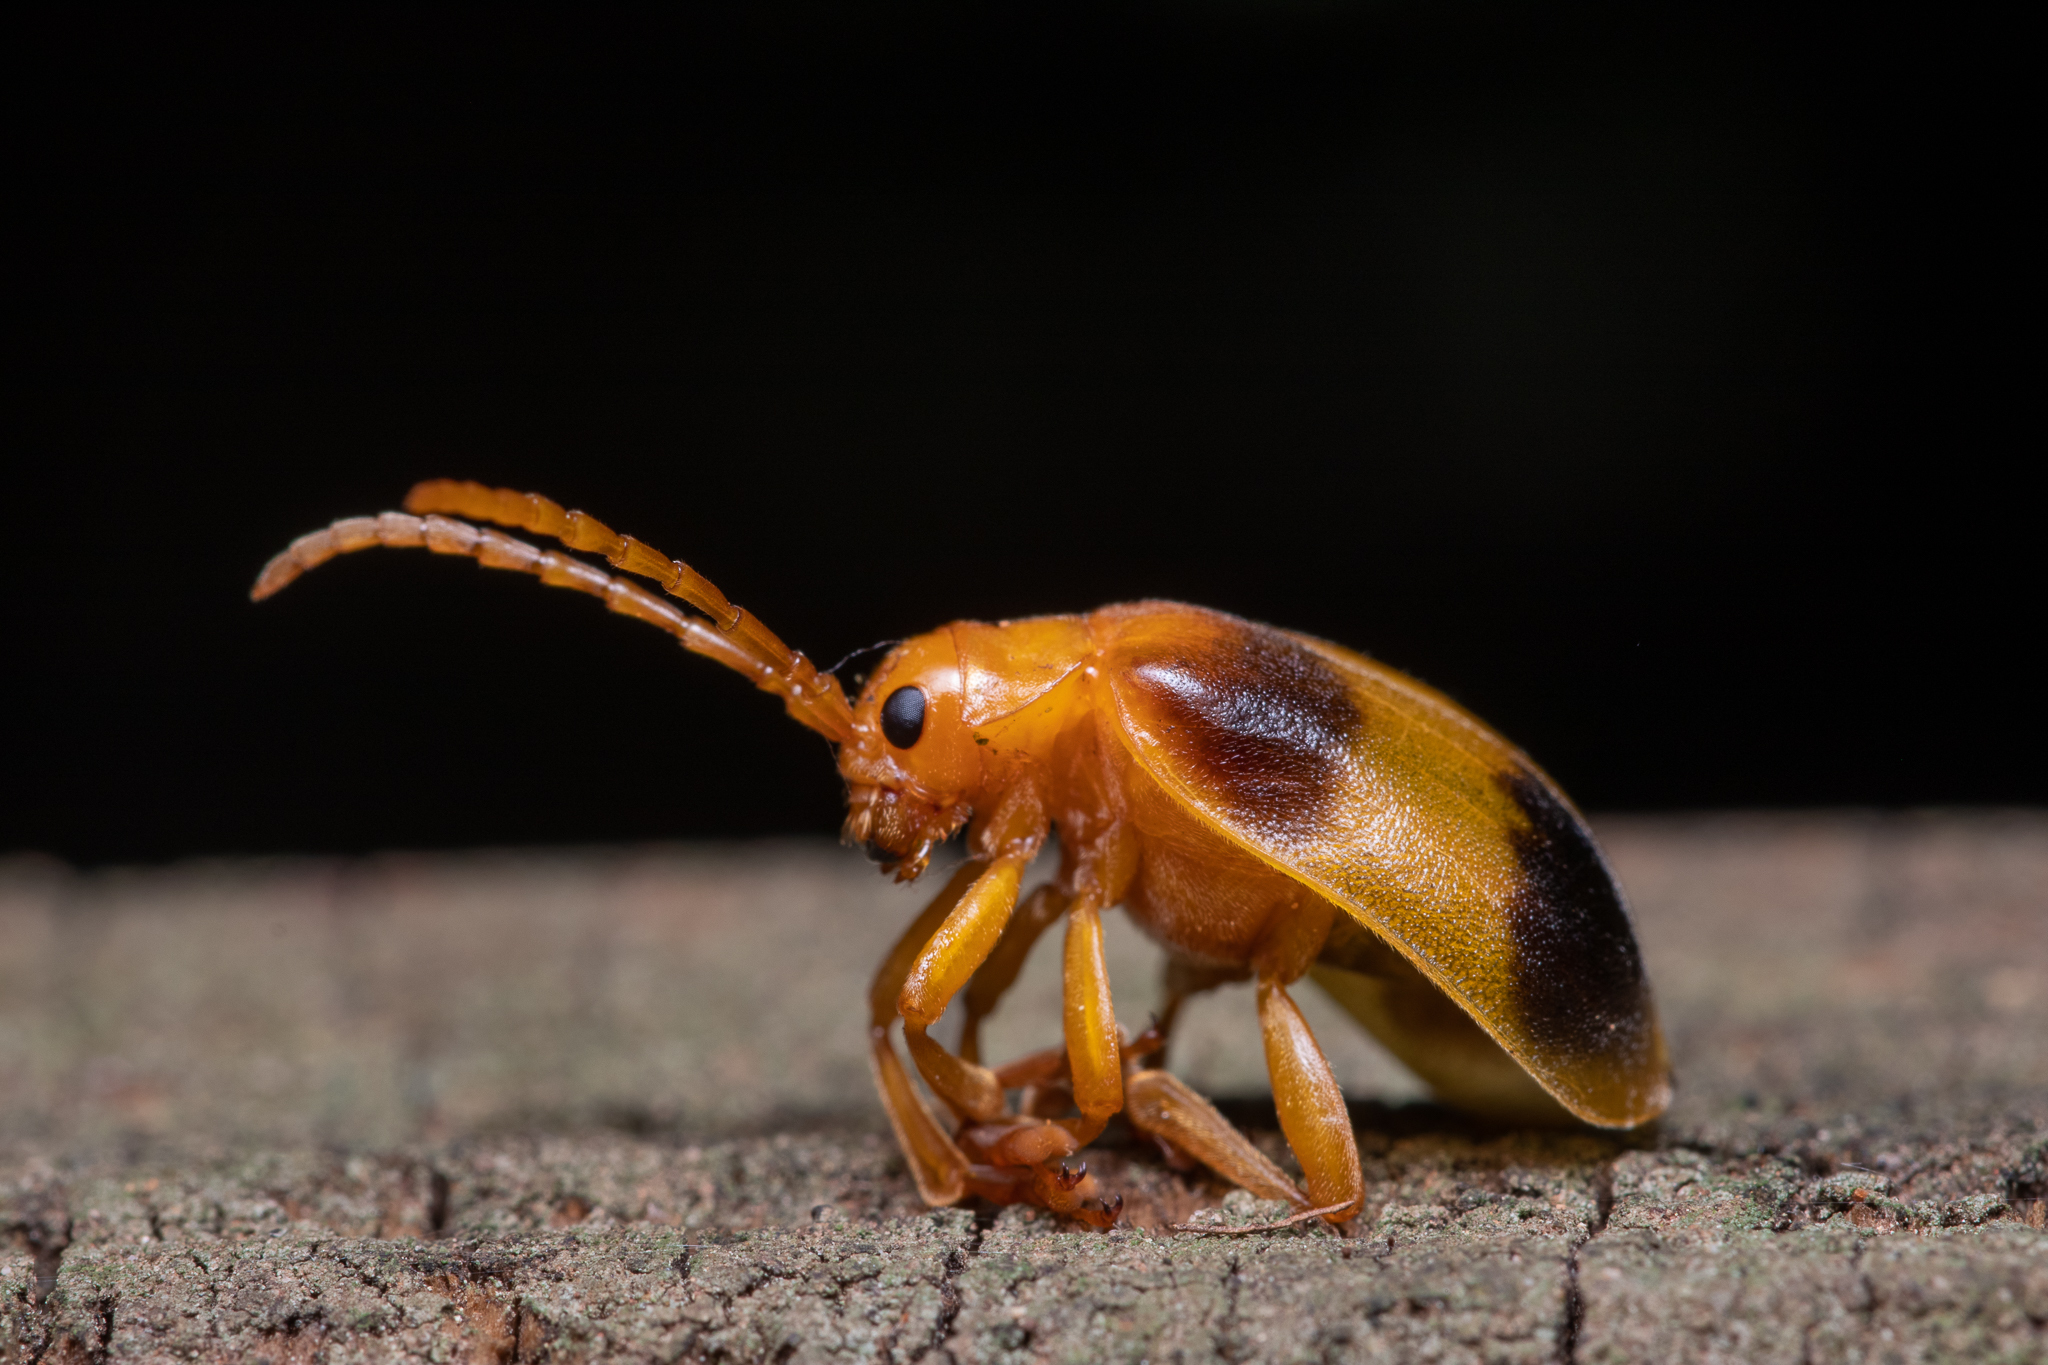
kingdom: Animalia
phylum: Arthropoda
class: Insecta
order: Coleoptera
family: Chrysomelidae
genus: Monocesta
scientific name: Monocesta coryli
